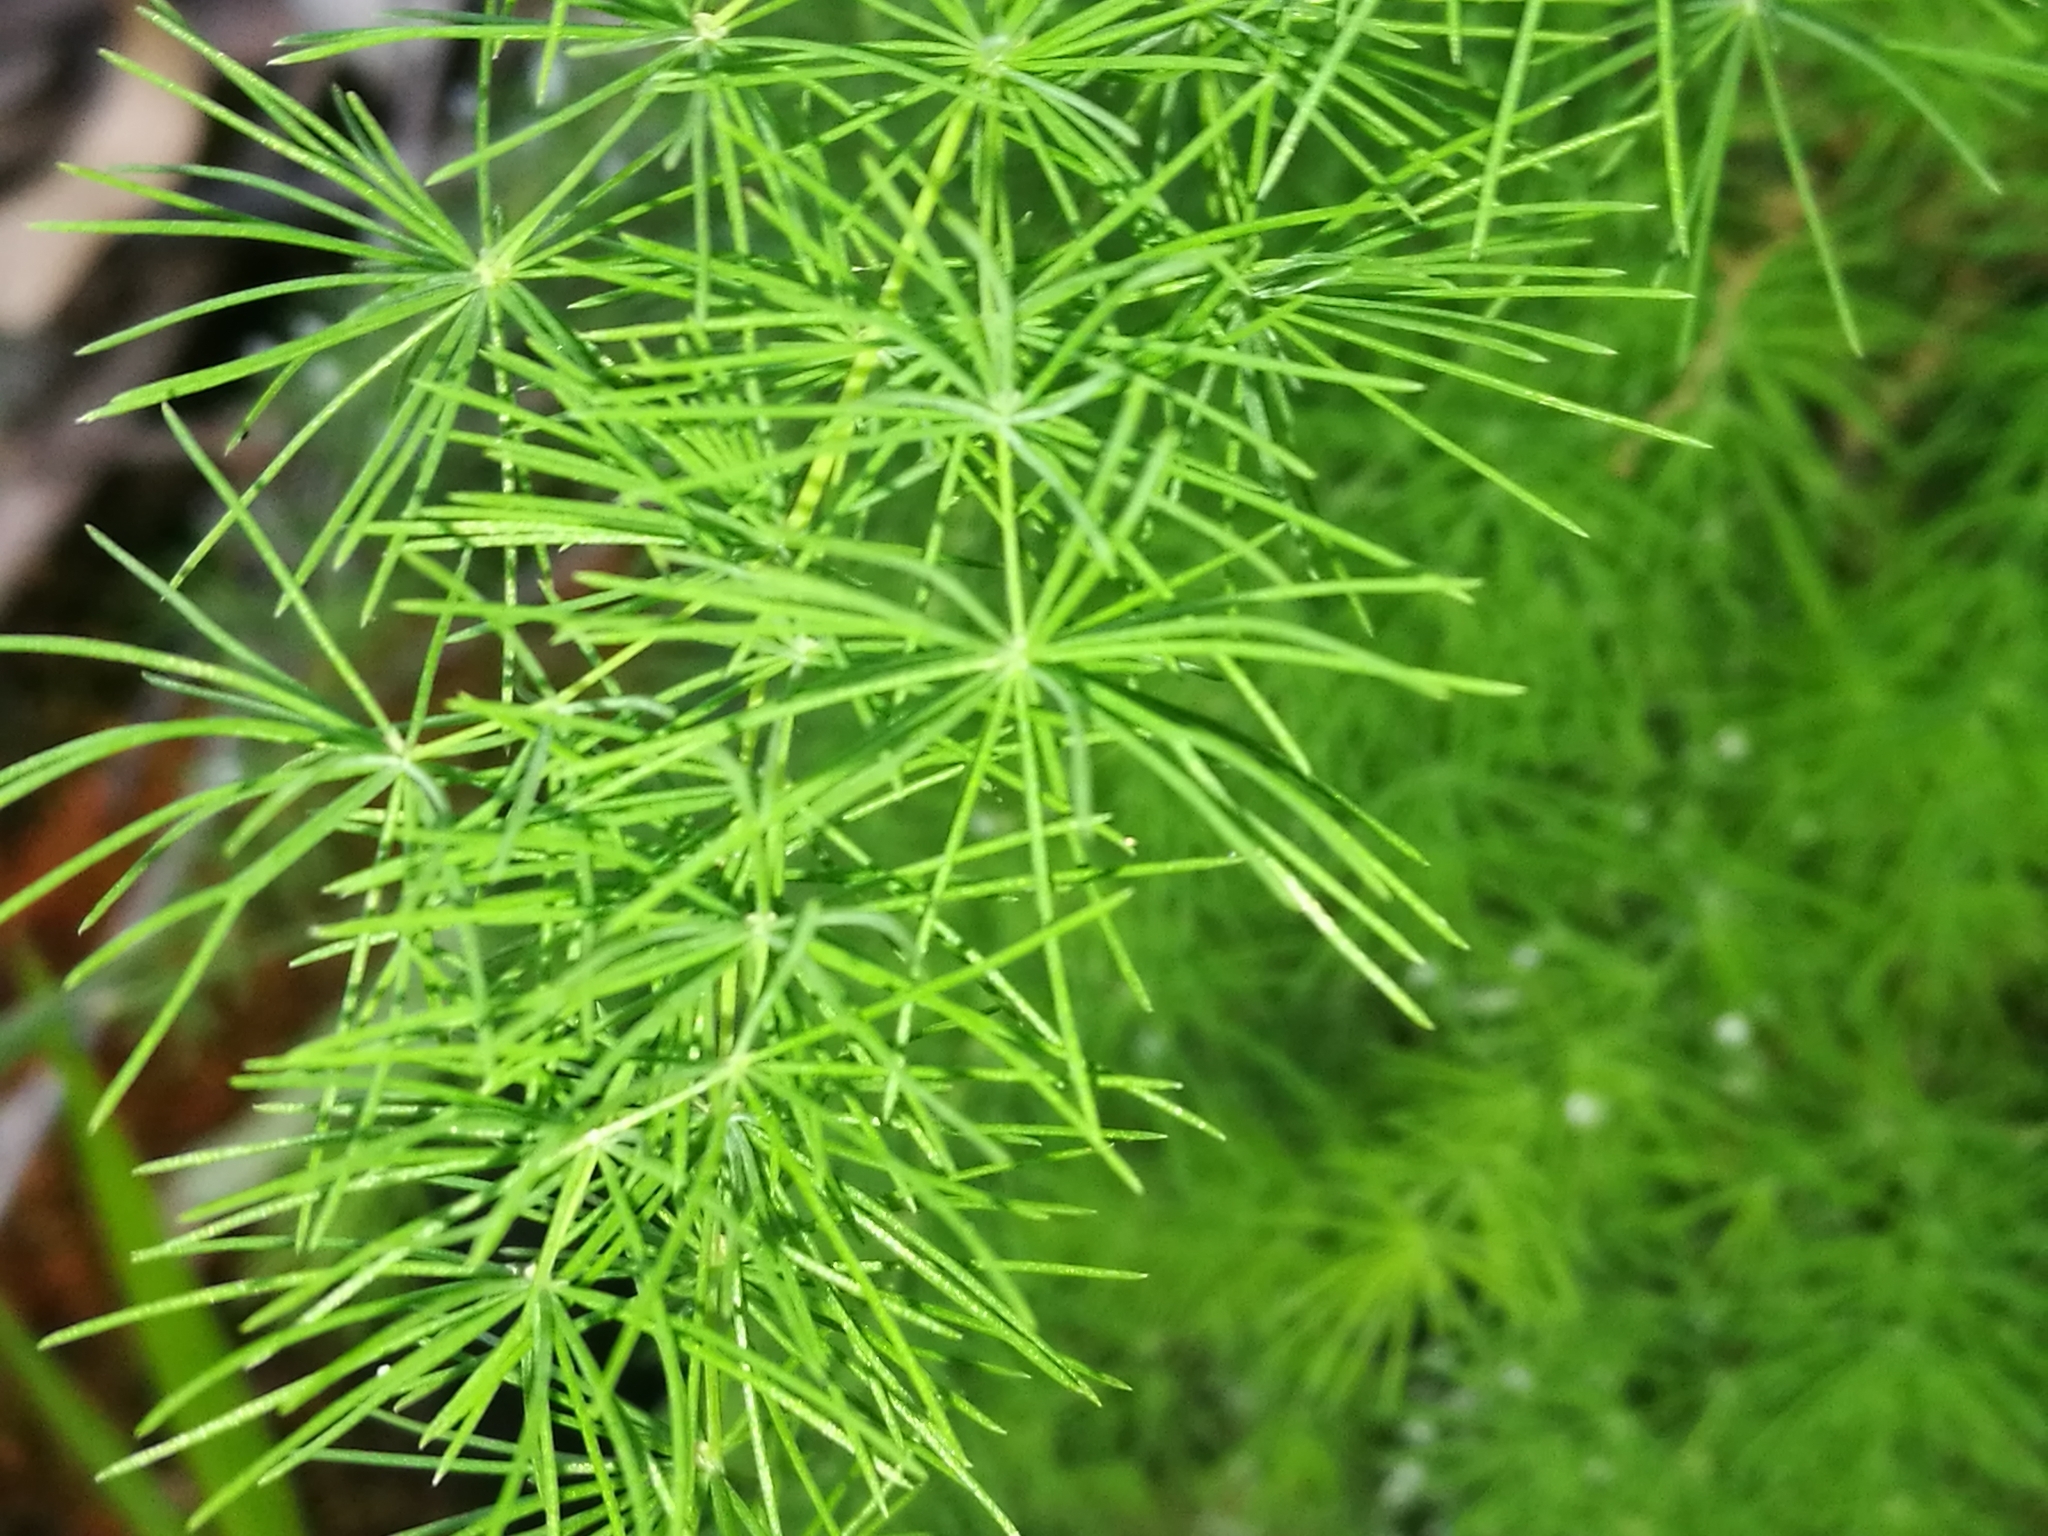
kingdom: Plantae
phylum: Tracheophyta
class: Liliopsida
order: Asparagales
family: Asparagaceae
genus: Asparagus
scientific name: Asparagus setaceus
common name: Common asparagus fern
